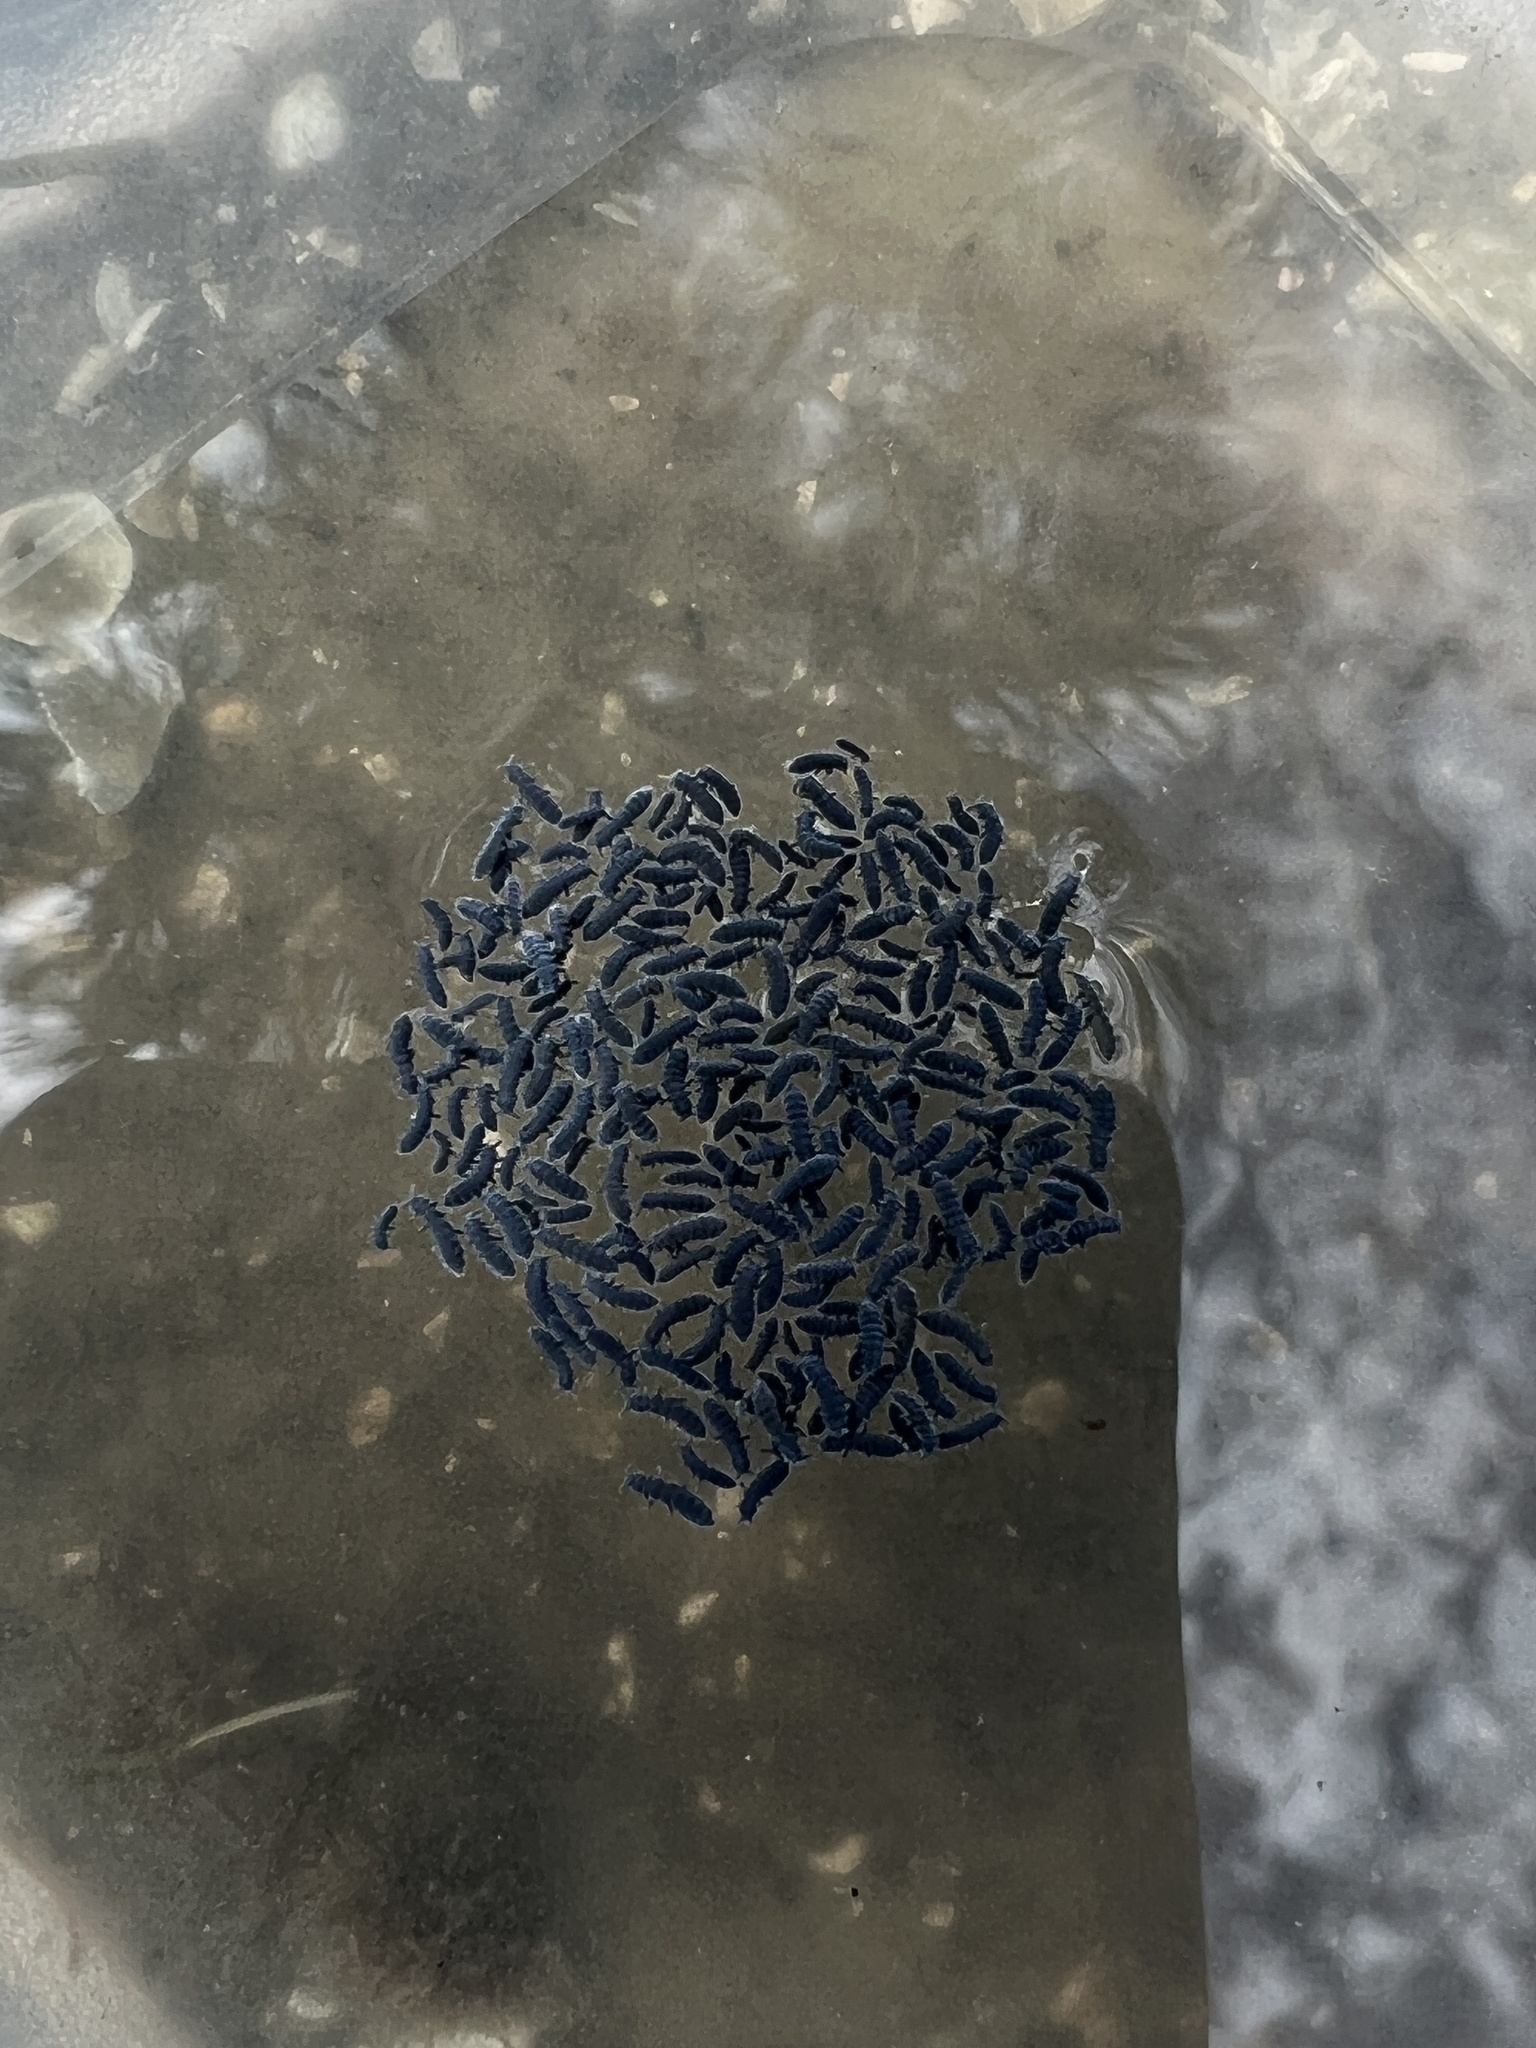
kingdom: Animalia
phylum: Arthropoda
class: Collembola
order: Poduromorpha
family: Neanuridae
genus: Anurida
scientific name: Anurida maritima
